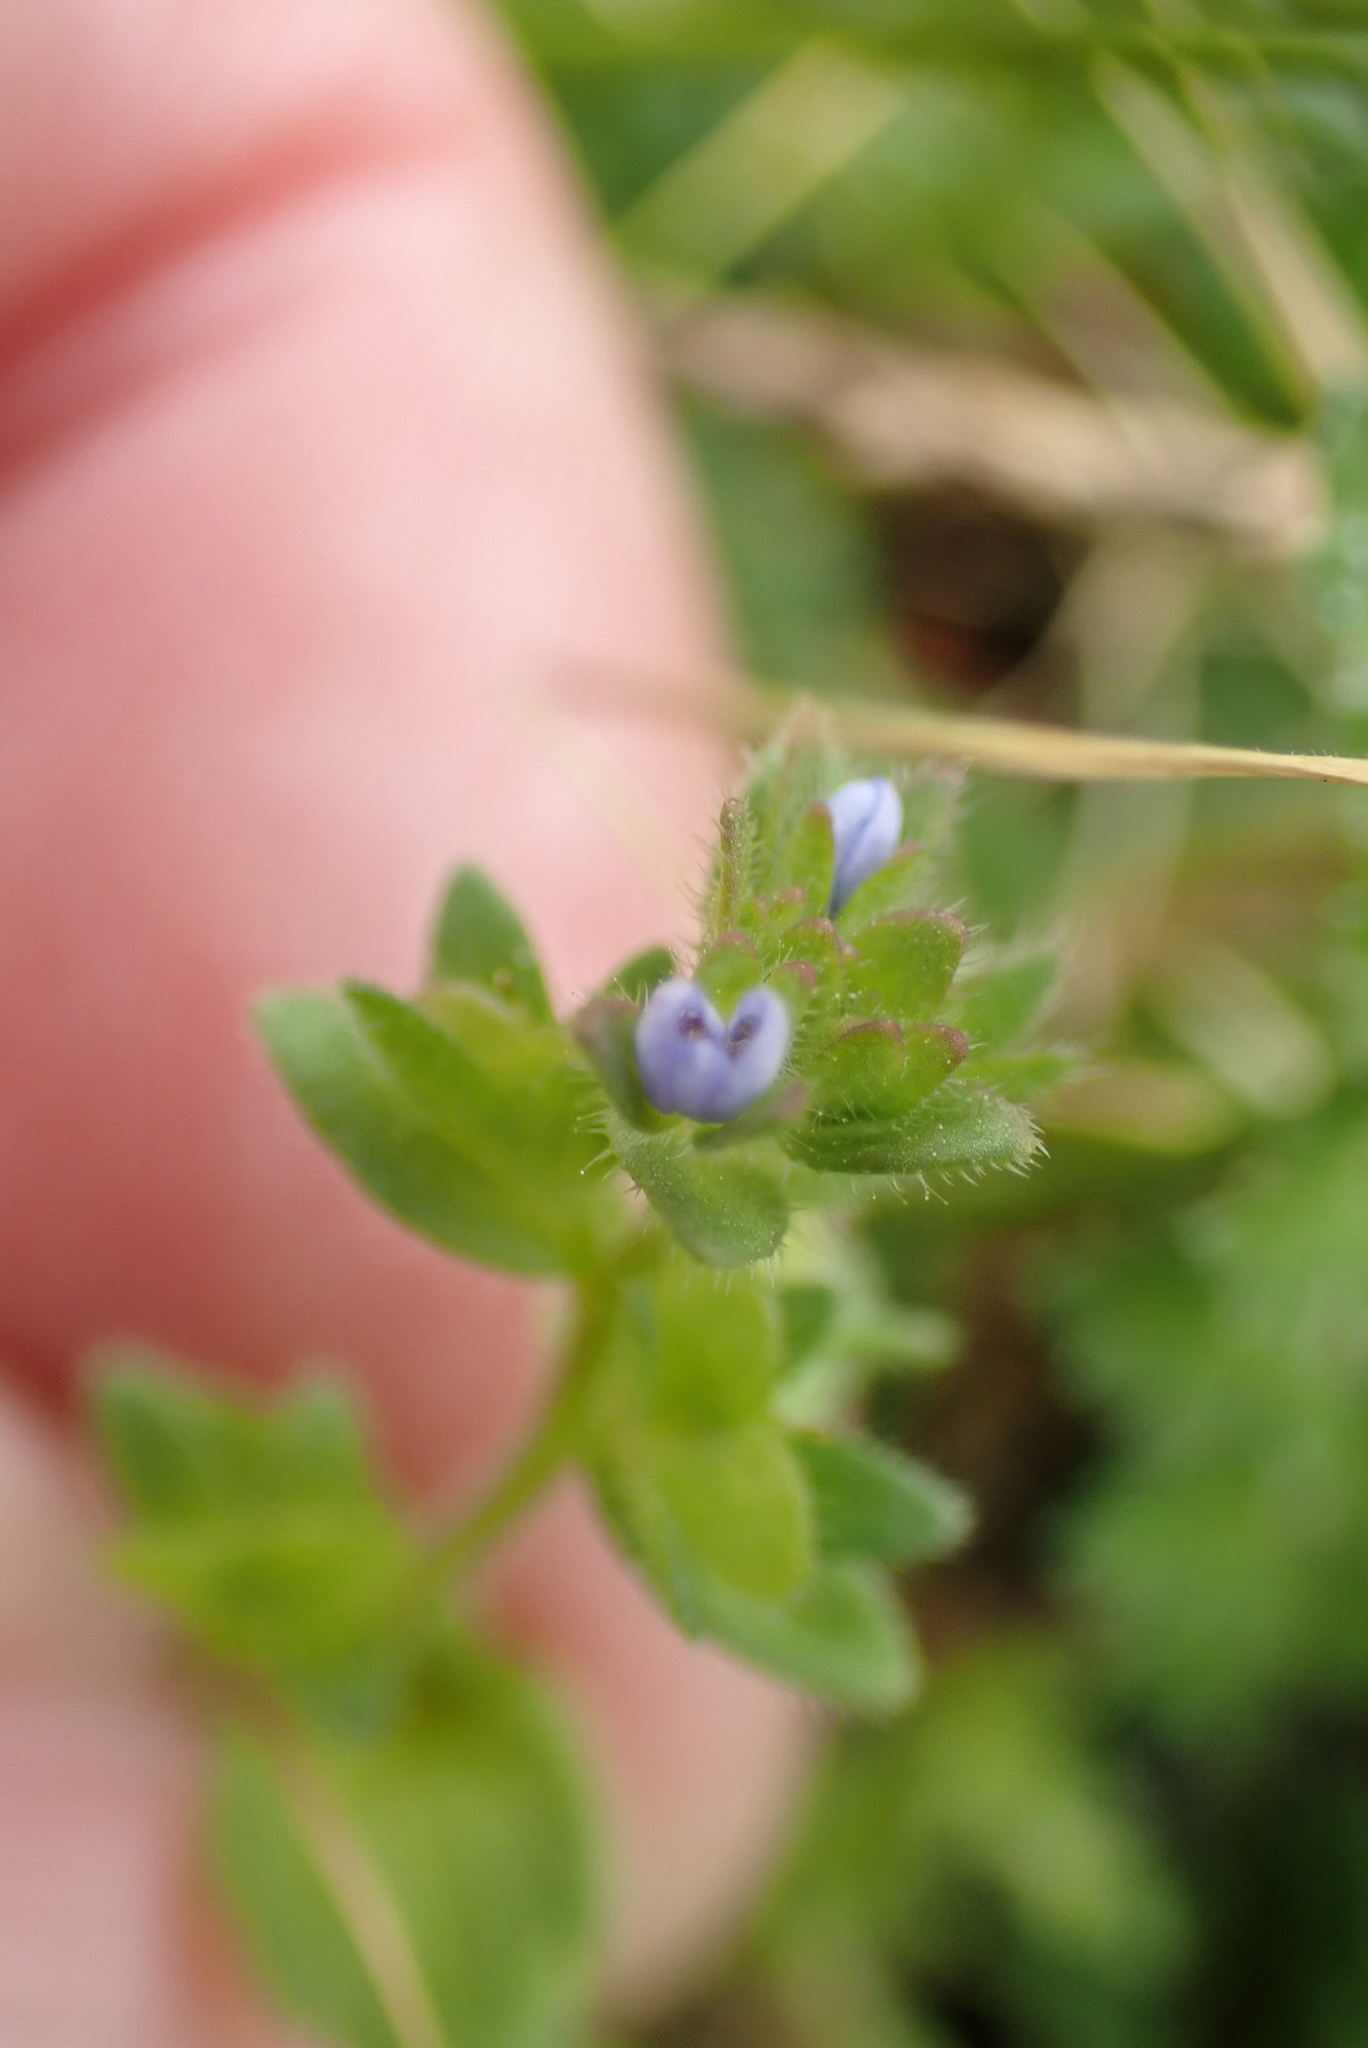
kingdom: Plantae
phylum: Tracheophyta
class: Magnoliopsida
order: Lamiales
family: Plantaginaceae
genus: Veronica
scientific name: Veronica arvensis
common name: Corn speedwell
